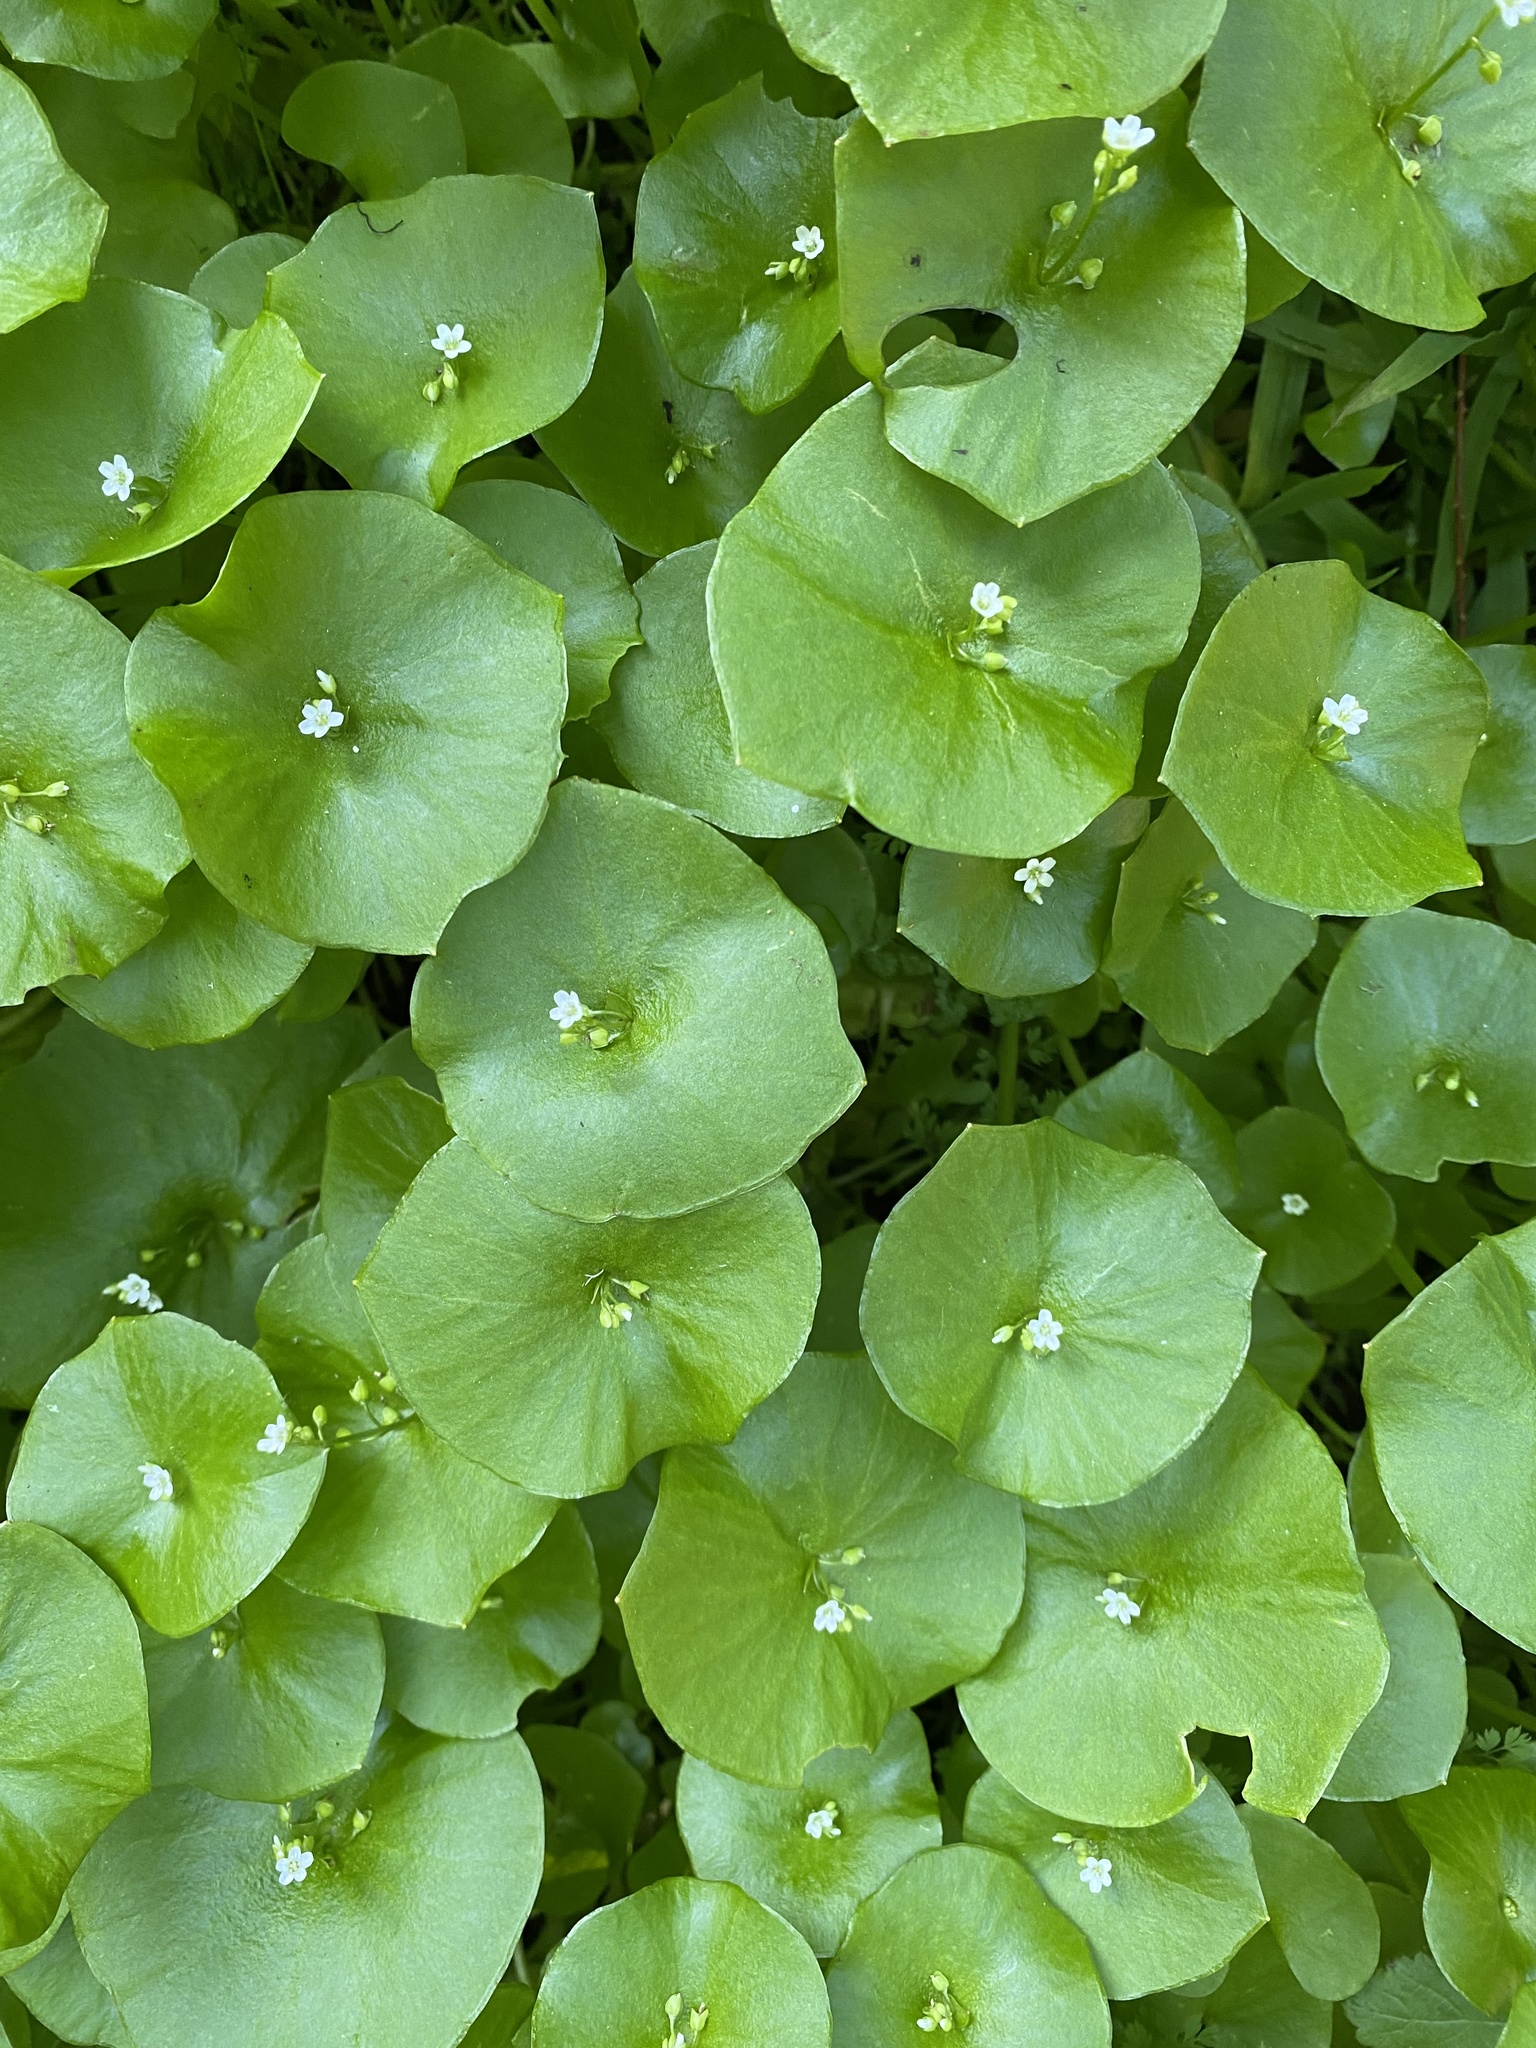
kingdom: Plantae
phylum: Tracheophyta
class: Magnoliopsida
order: Caryophyllales
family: Montiaceae
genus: Claytonia
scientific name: Claytonia perfoliata
